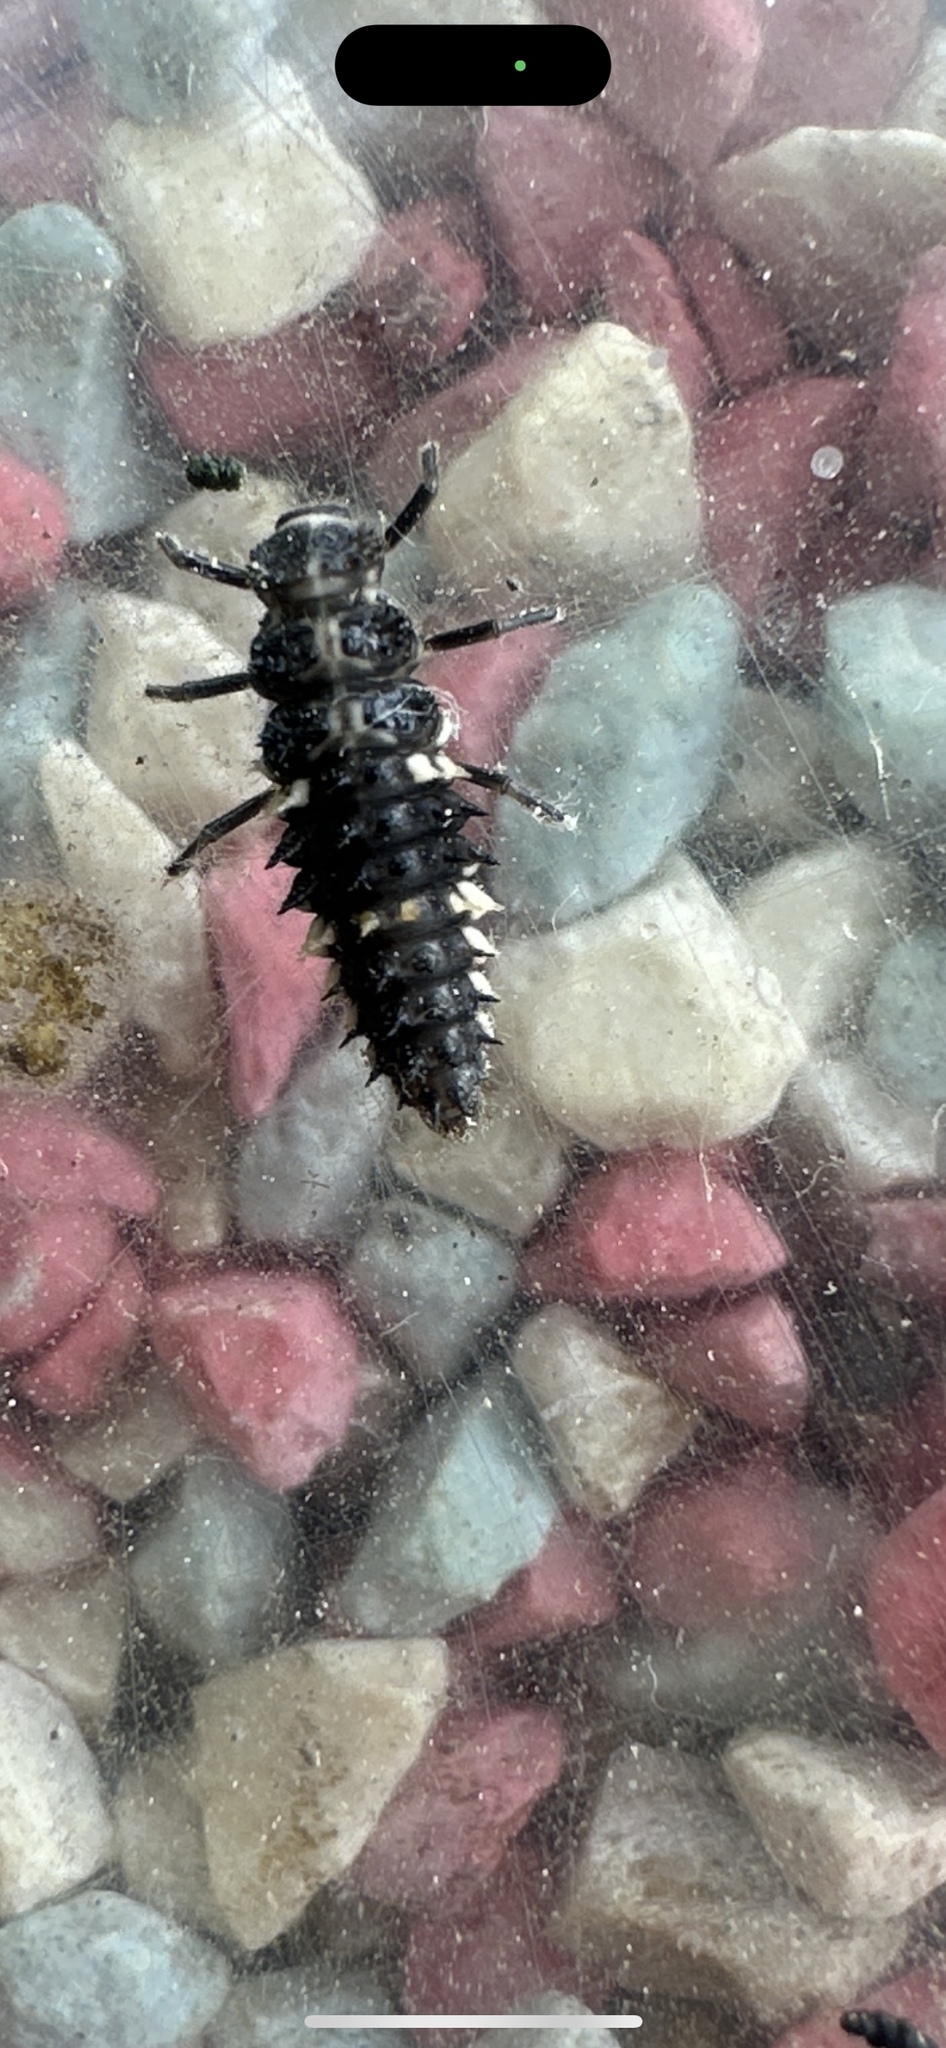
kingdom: Animalia
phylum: Arthropoda
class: Insecta
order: Coleoptera
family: Coccinellidae
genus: Calvia
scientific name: Calvia quatuordecimguttata
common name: Cream-spot ladybird
